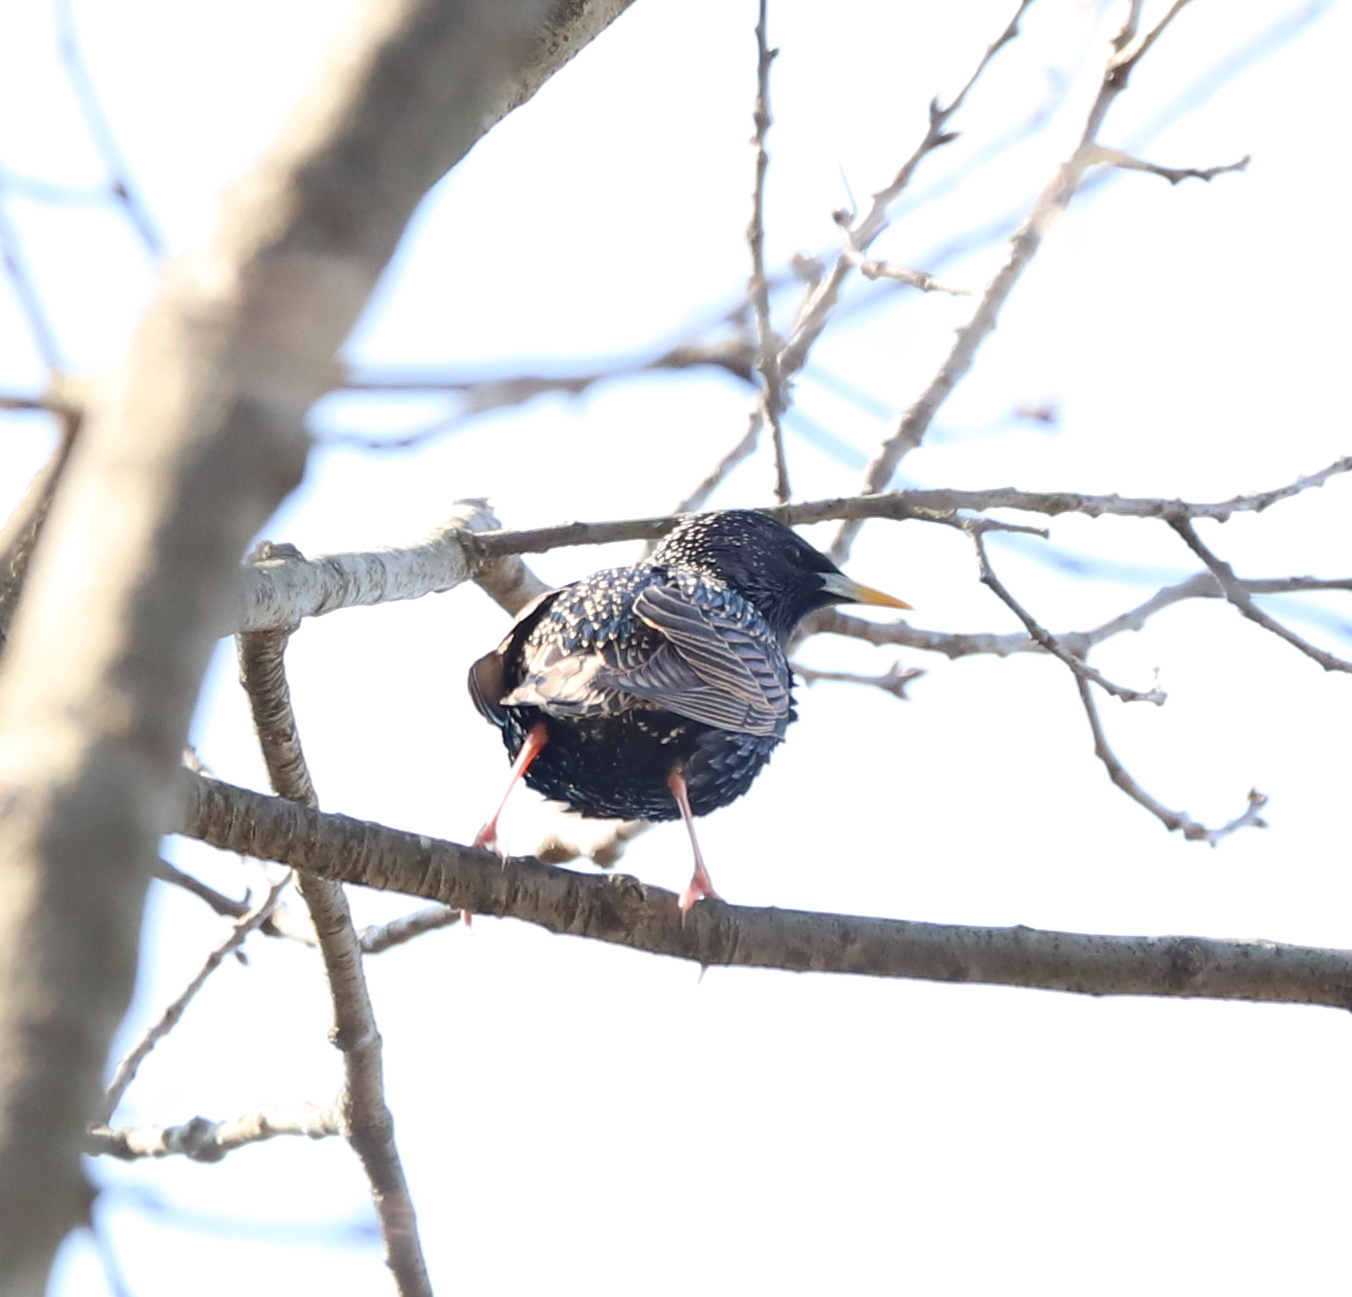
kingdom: Animalia
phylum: Chordata
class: Aves
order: Passeriformes
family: Sturnidae
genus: Sturnus
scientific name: Sturnus vulgaris
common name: Common starling
